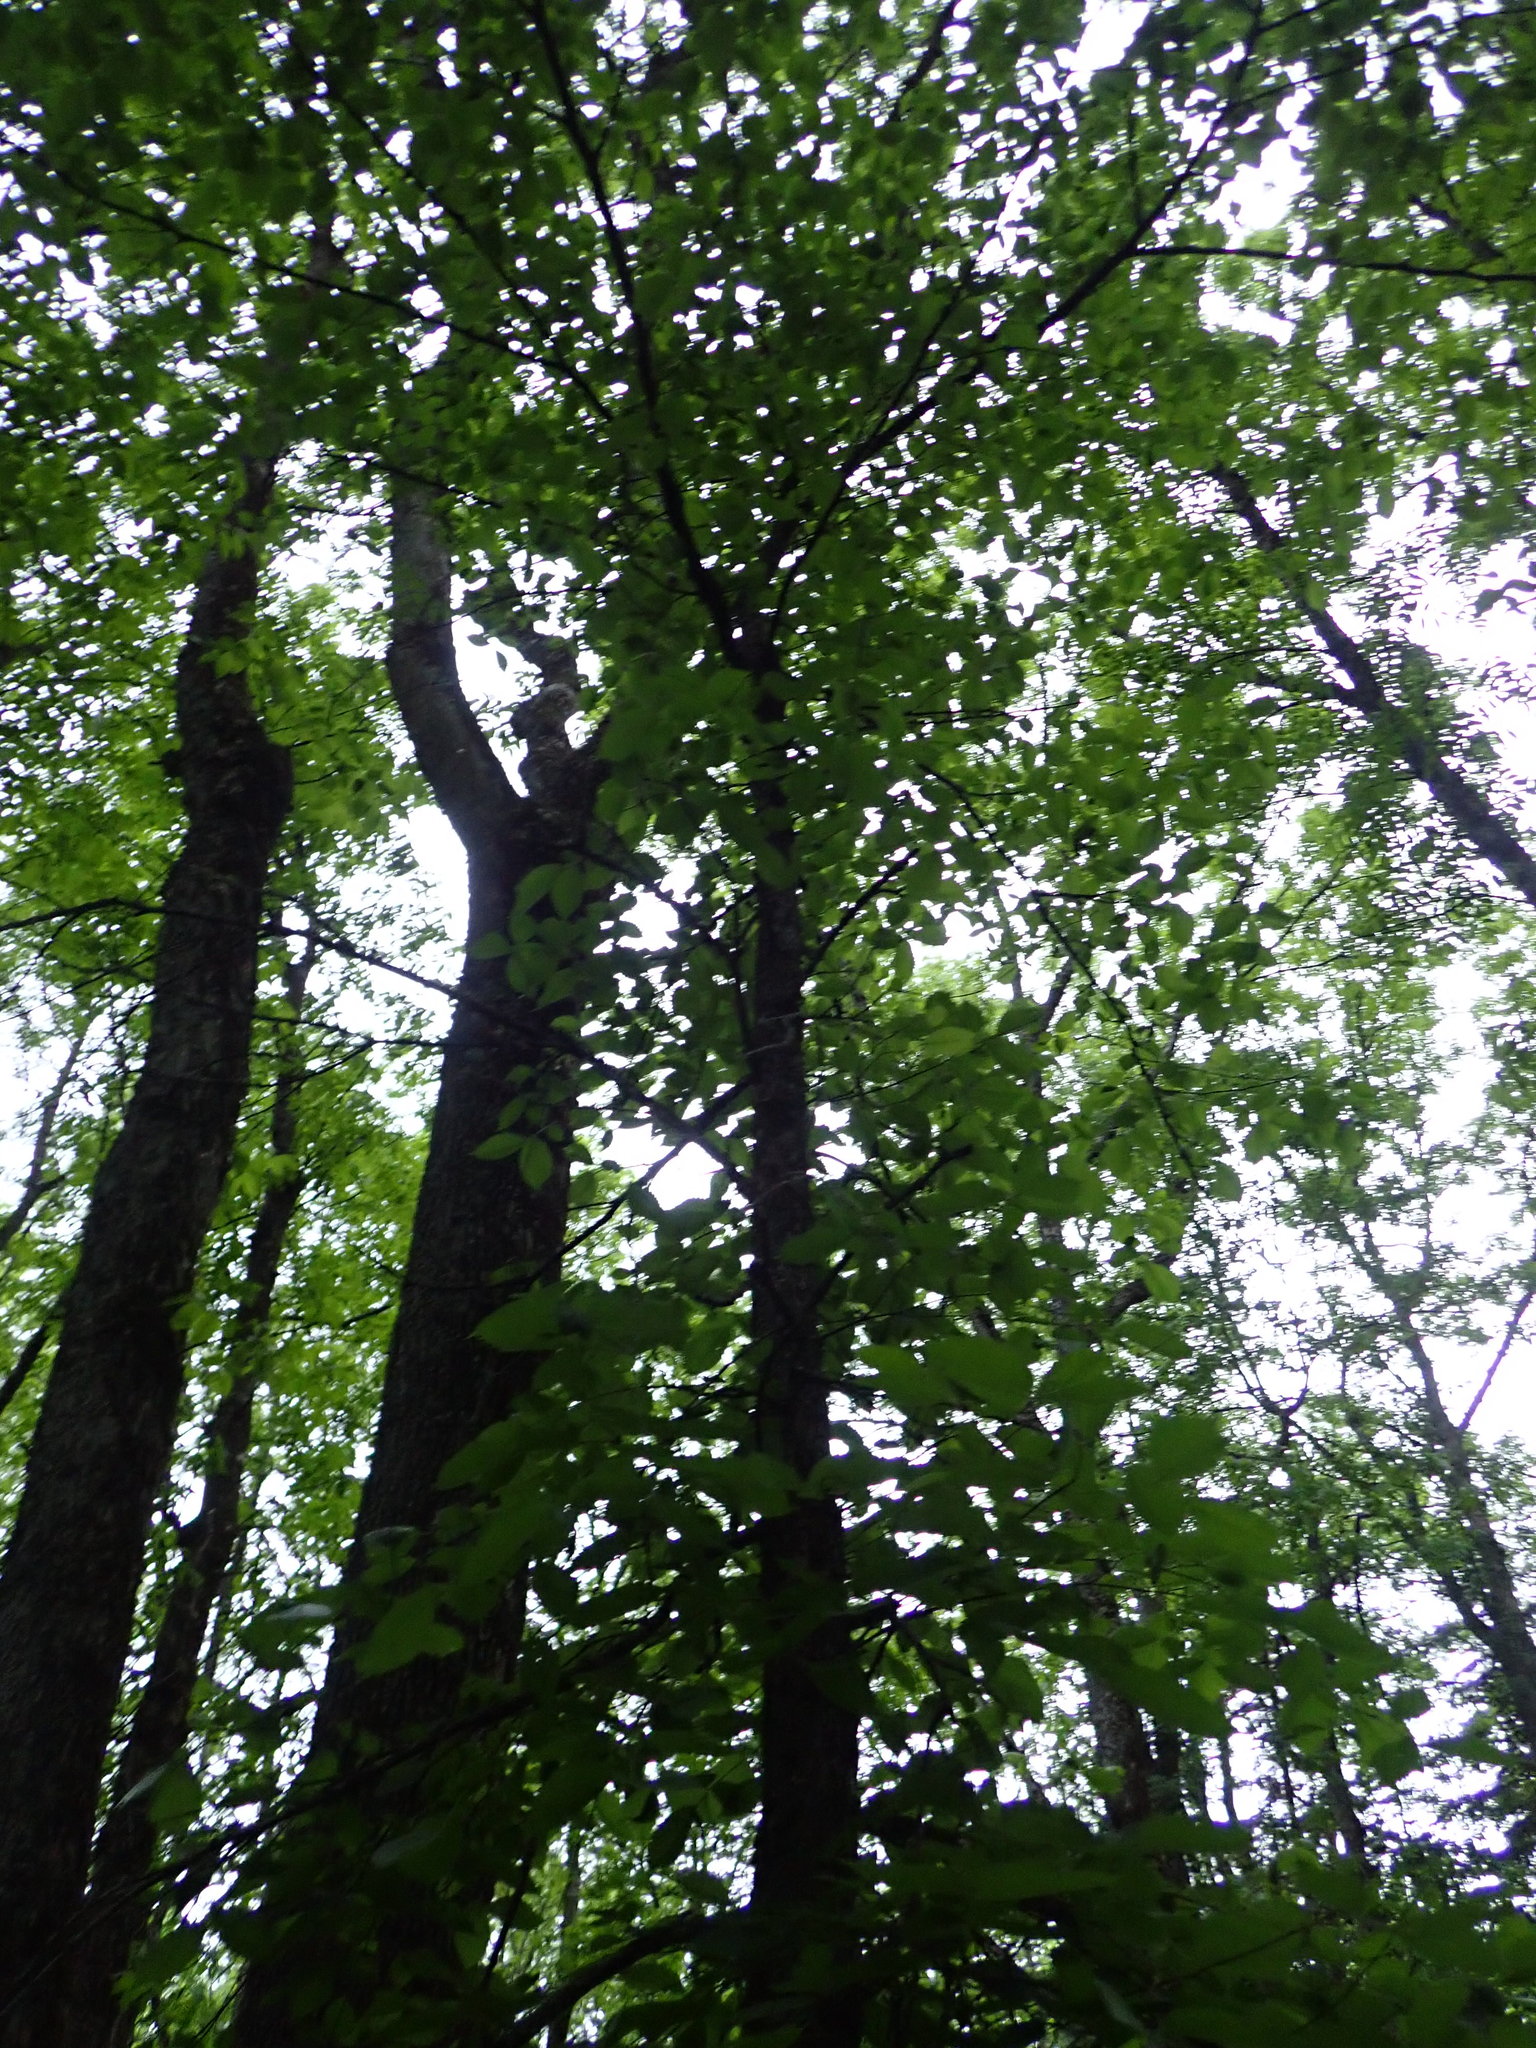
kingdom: Plantae
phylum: Tracheophyta
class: Magnoliopsida
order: Lamiales
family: Oleaceae
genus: Fraxinus
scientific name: Fraxinus nigra
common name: Black ash
